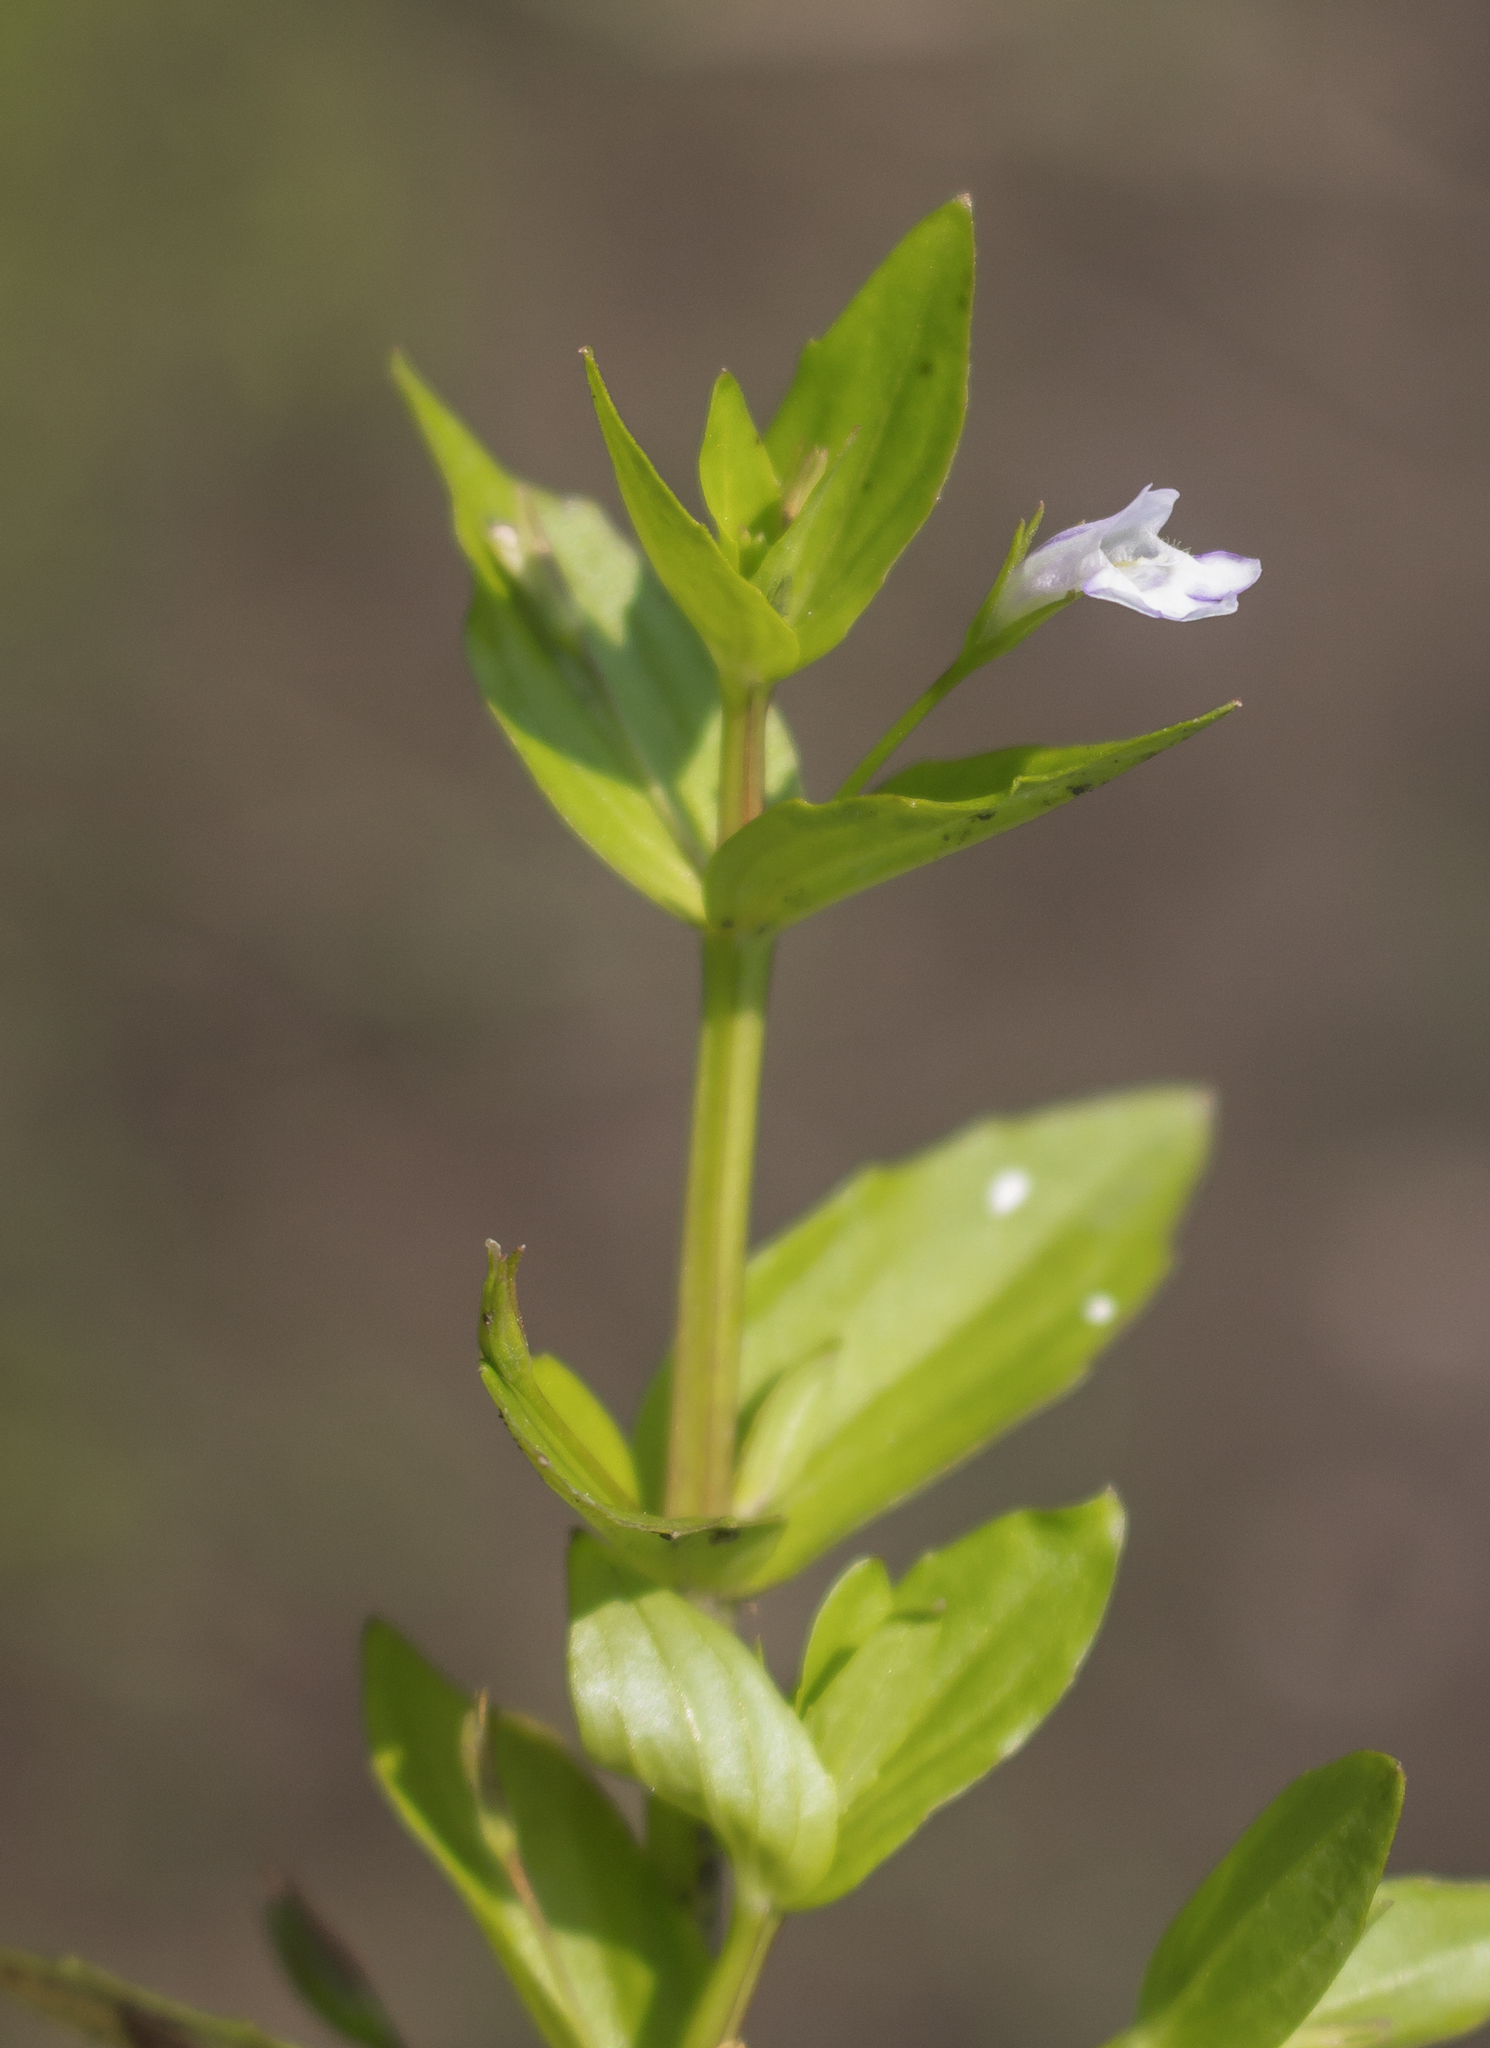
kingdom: Plantae
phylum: Tracheophyta
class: Magnoliopsida
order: Lamiales
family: Linderniaceae
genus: Lindernia
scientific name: Lindernia dubia
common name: Annual false pimpernel
